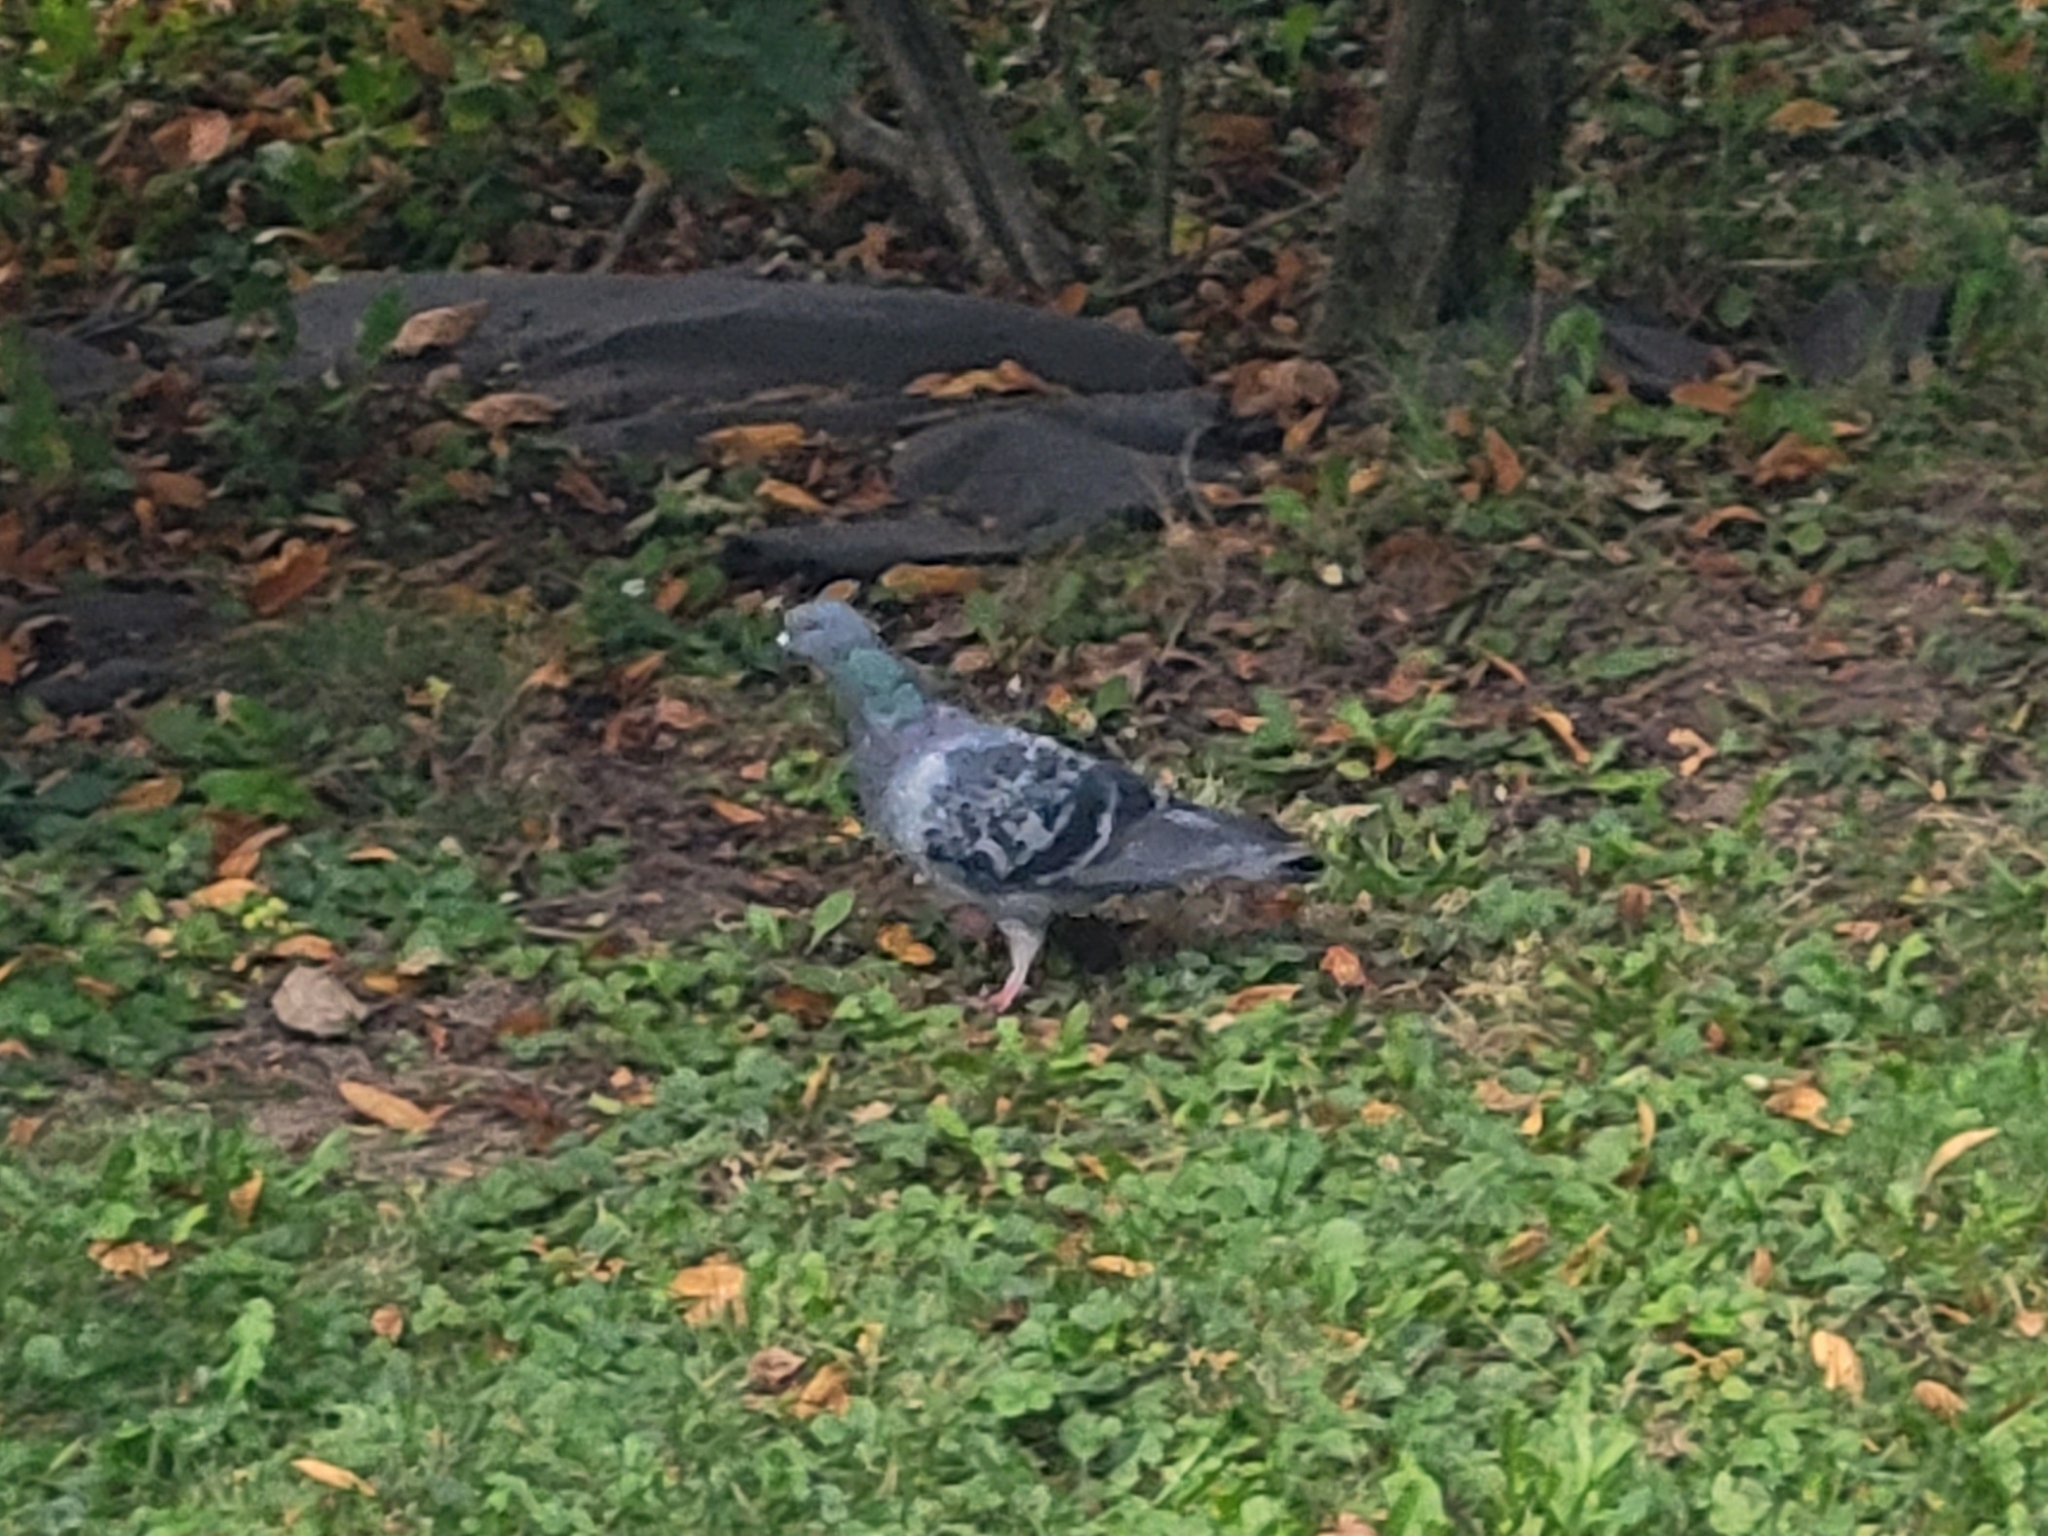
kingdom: Animalia
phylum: Chordata
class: Aves
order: Columbiformes
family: Columbidae
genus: Columba
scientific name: Columba livia
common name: Rock pigeon
